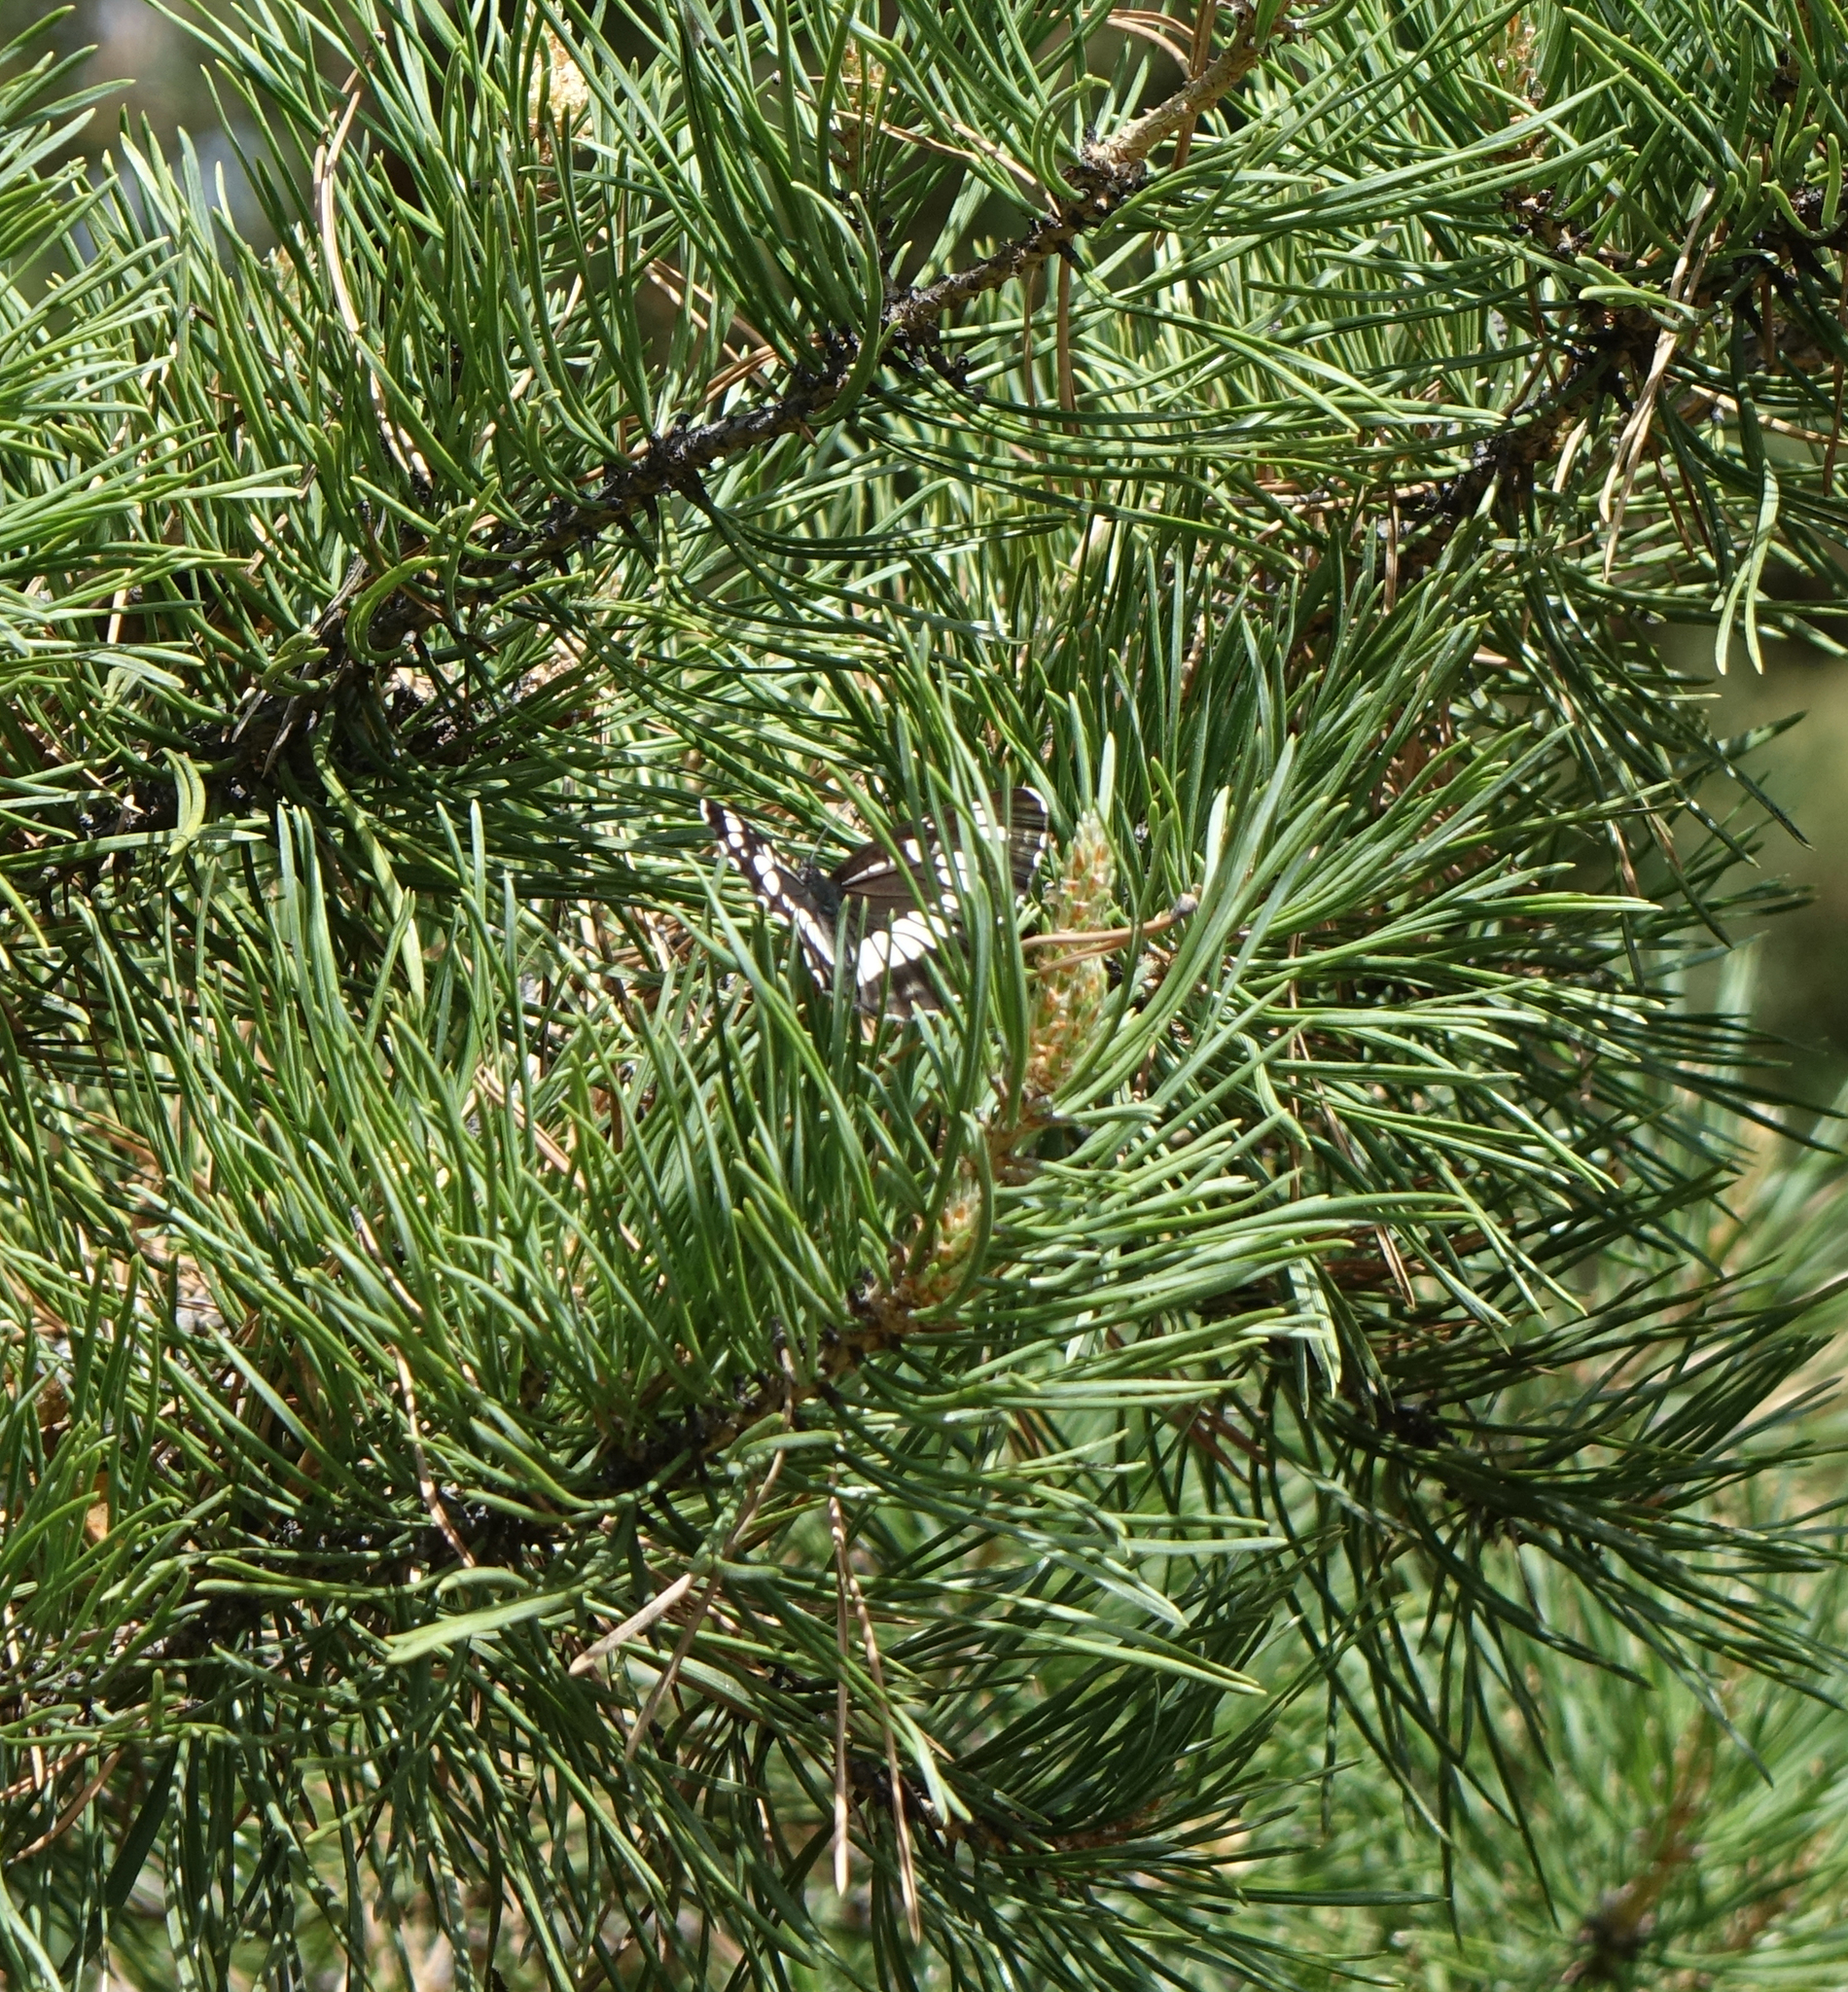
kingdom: Animalia
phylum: Arthropoda
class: Insecta
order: Lepidoptera
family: Nymphalidae
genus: Neptis
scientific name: Neptis rivularis
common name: Hungarian glider
